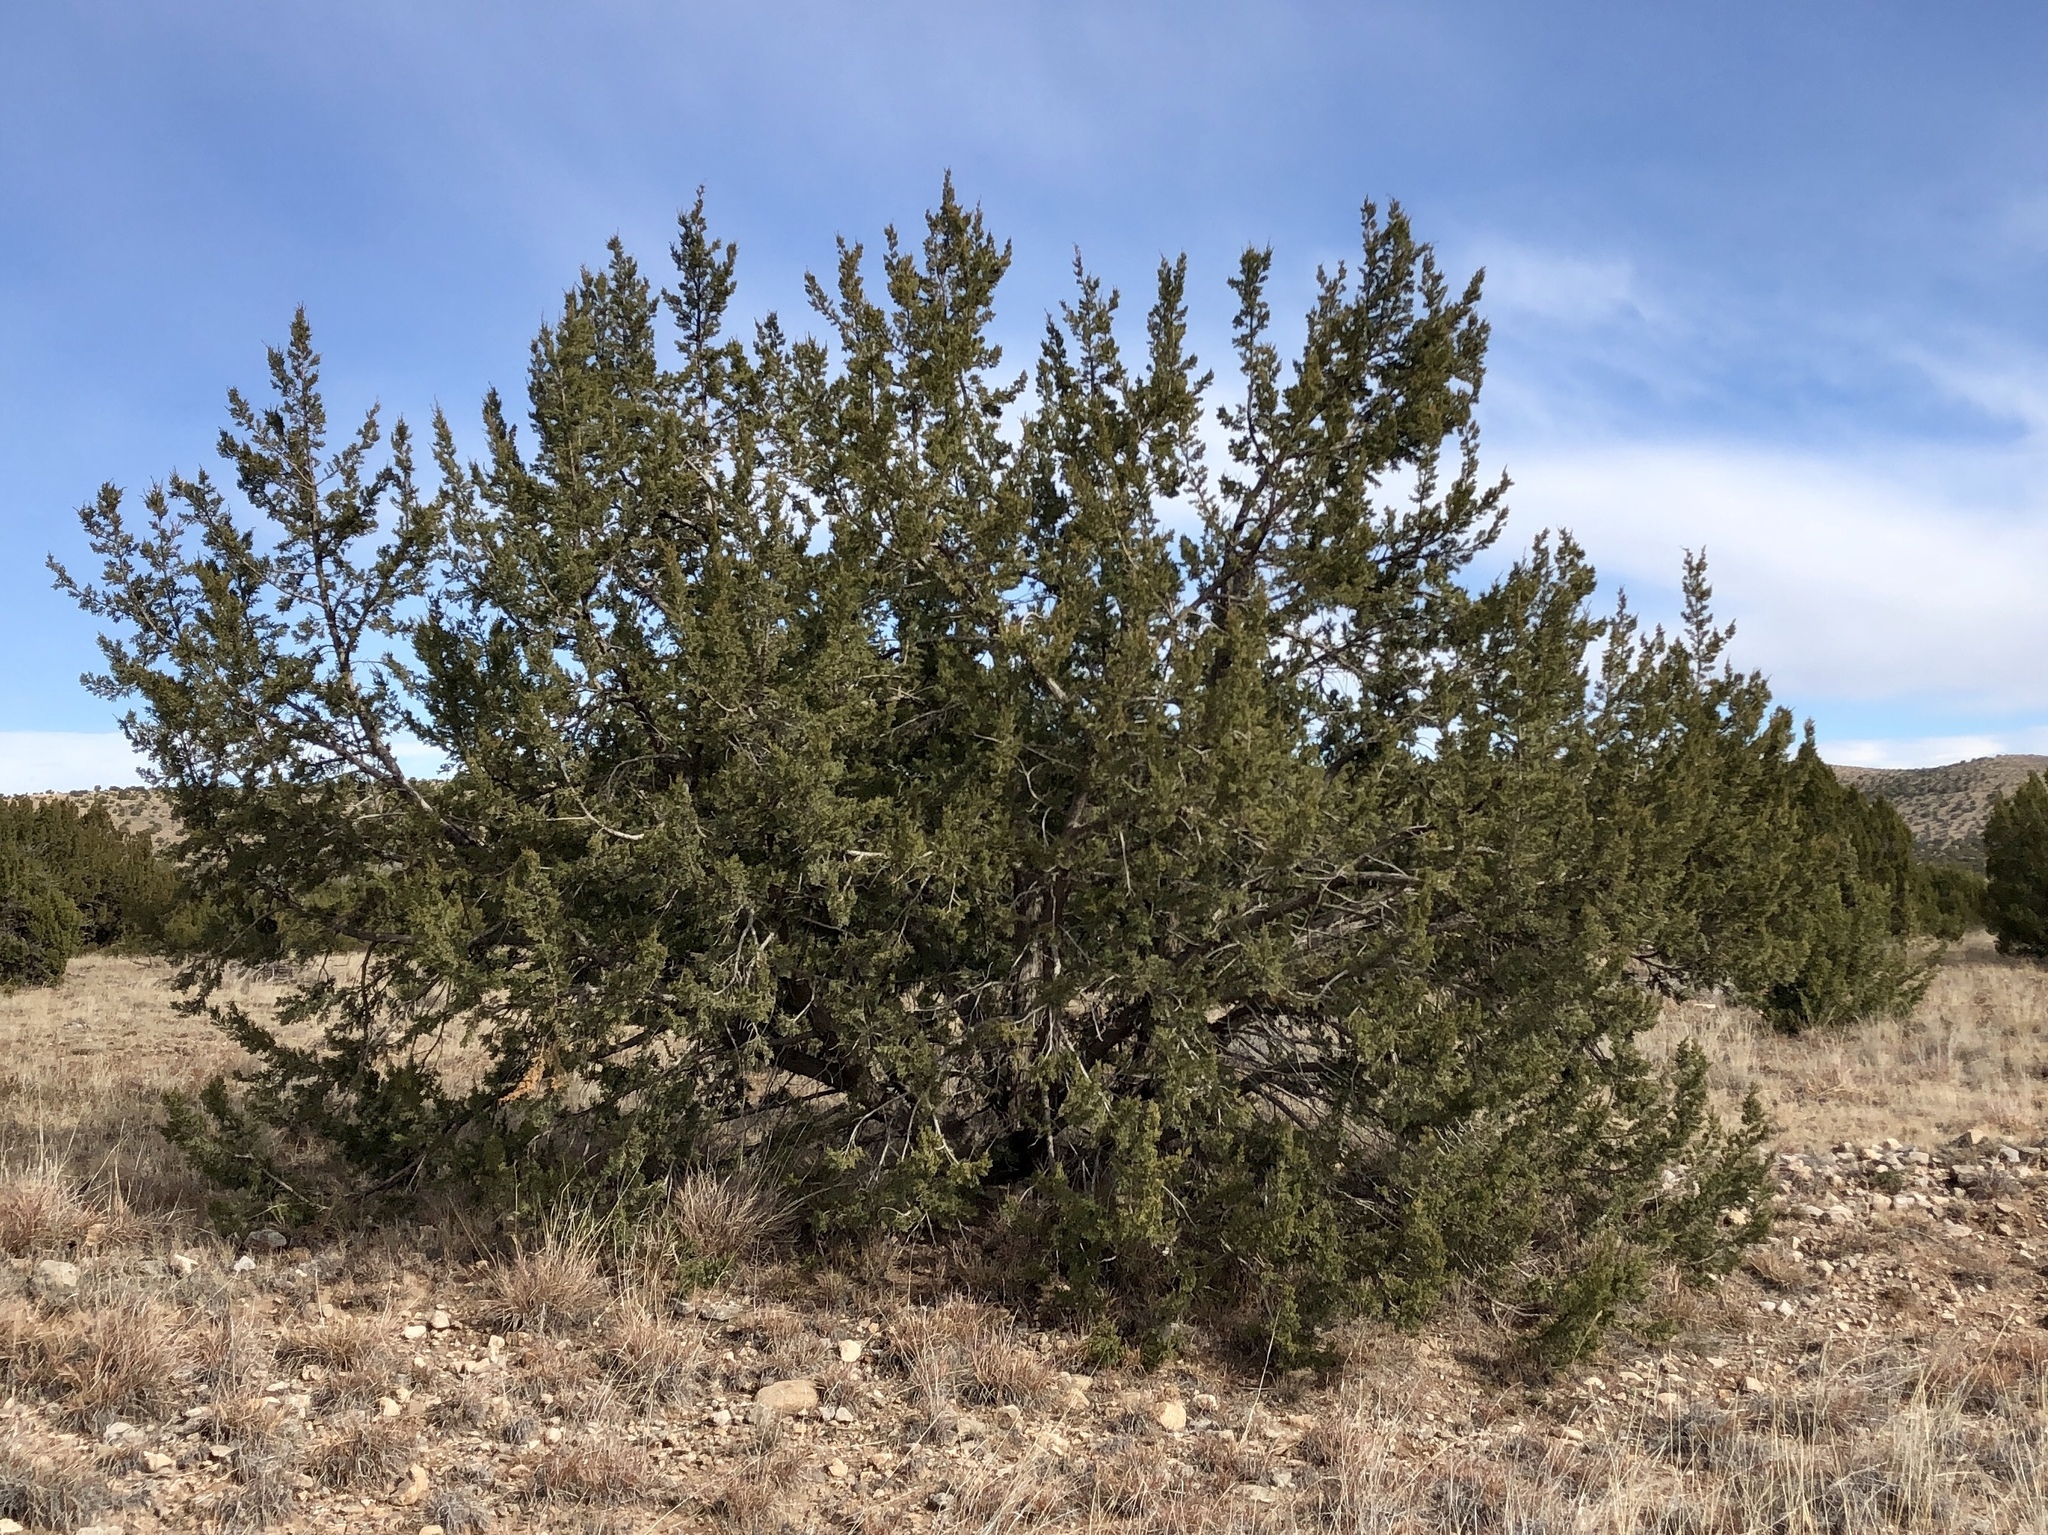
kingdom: Plantae
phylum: Tracheophyta
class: Pinopsida
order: Pinales
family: Cupressaceae
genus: Juniperus
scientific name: Juniperus monosperma
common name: One-seed juniper
